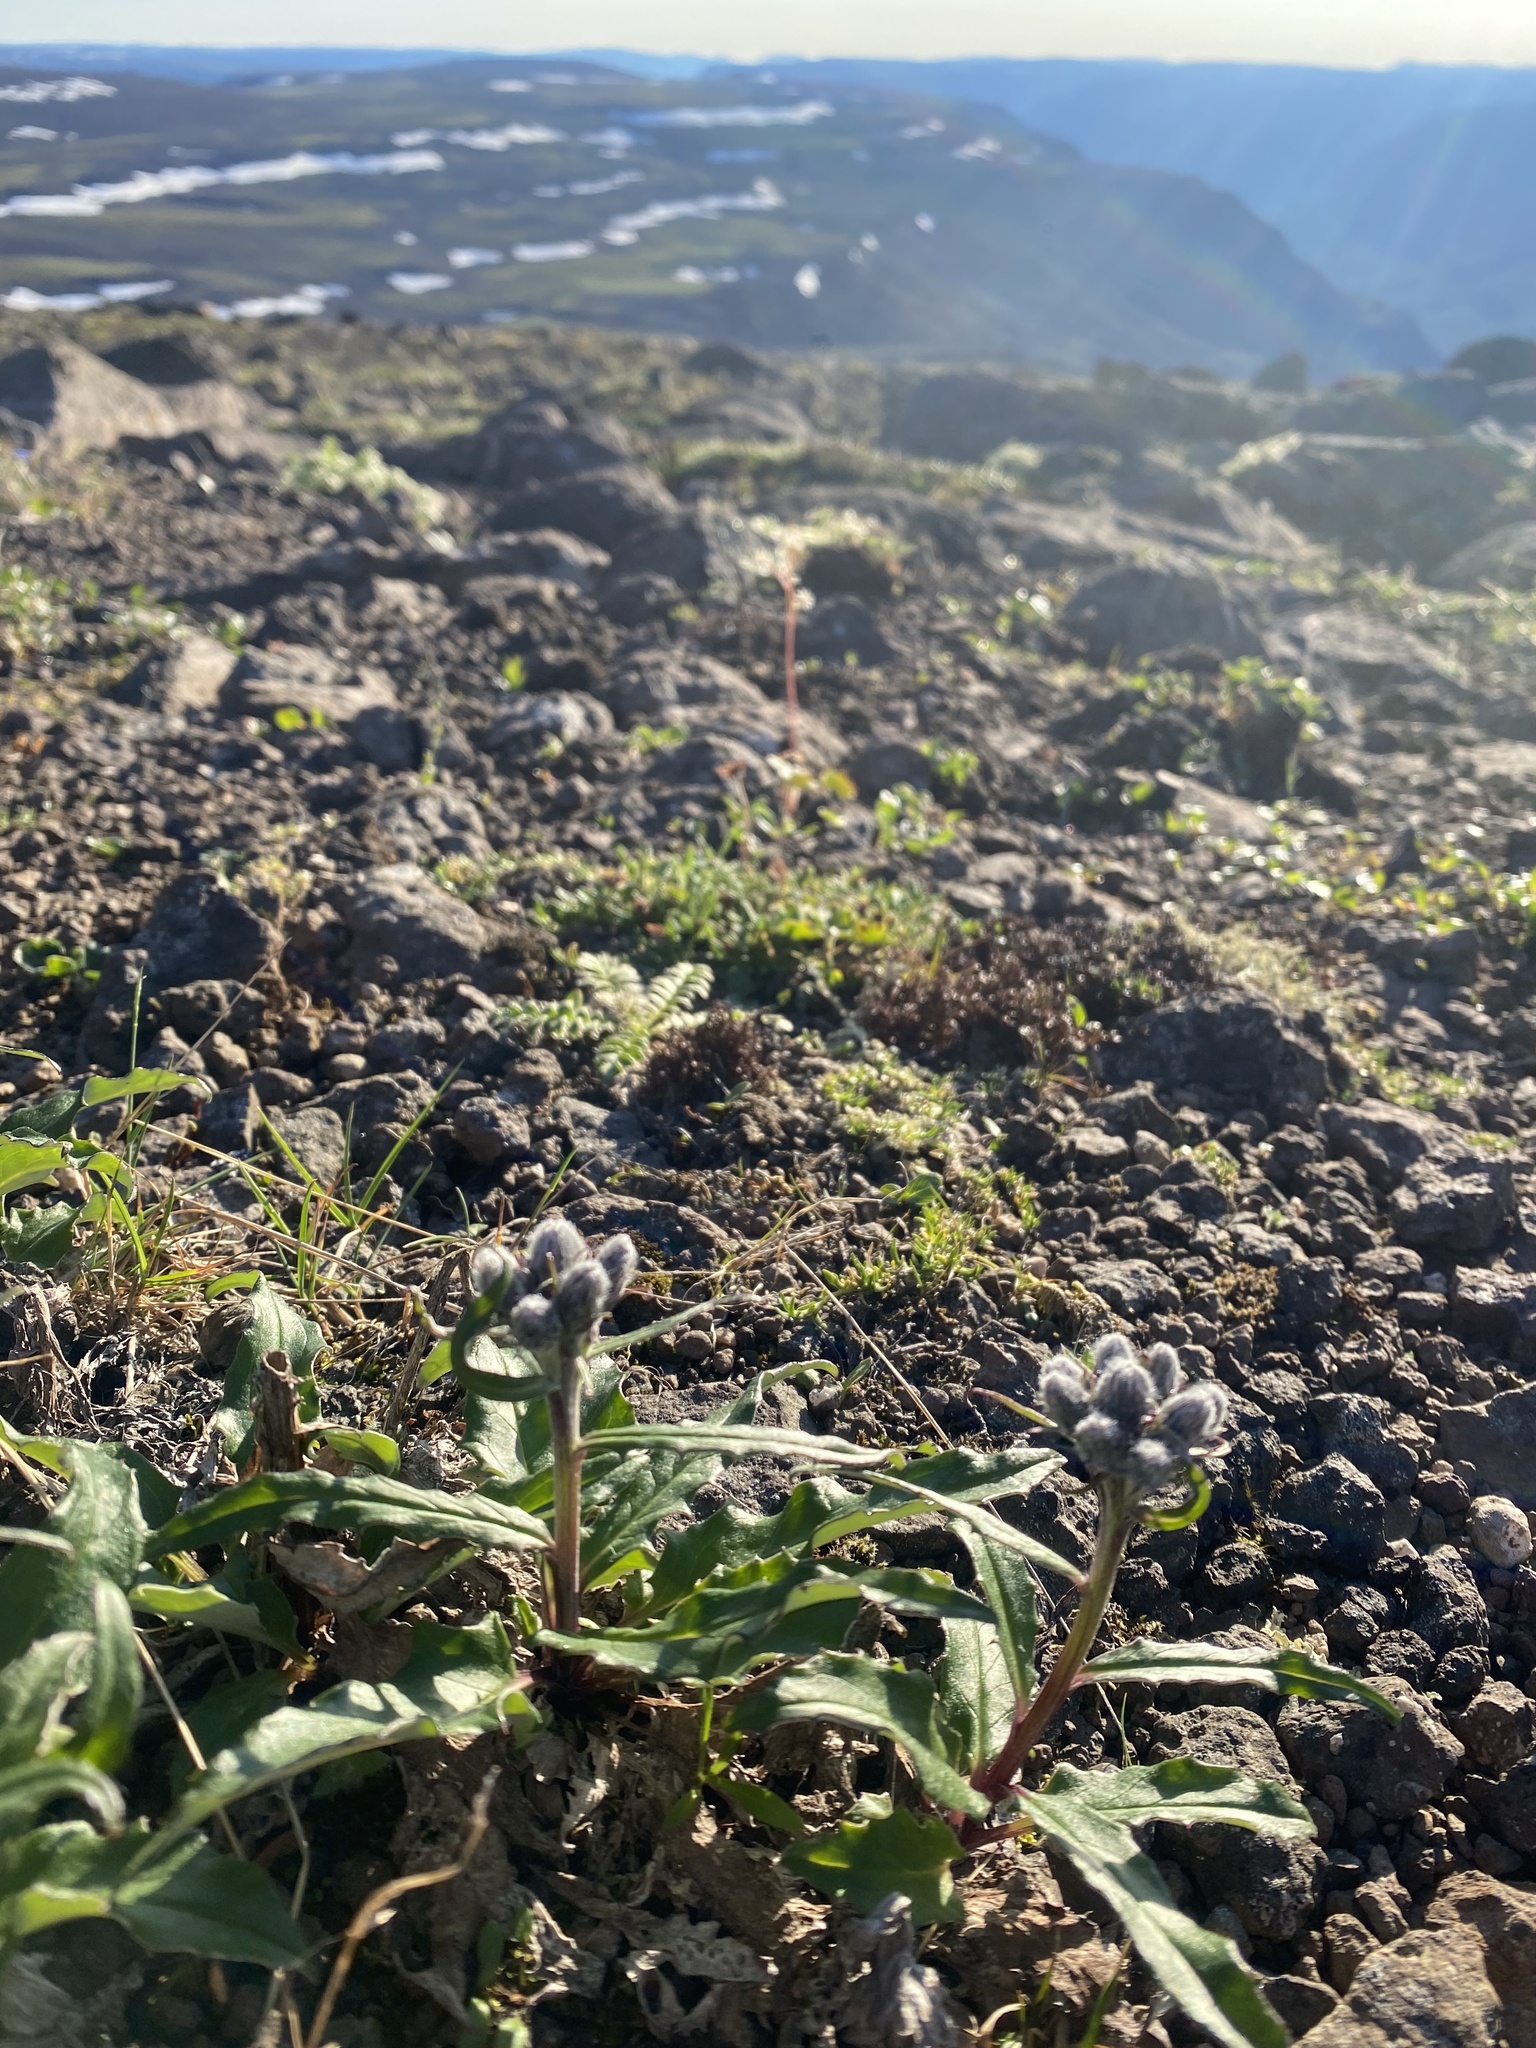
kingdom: Plantae
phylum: Tracheophyta
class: Magnoliopsida
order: Asterales
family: Asteraceae
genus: Saussurea
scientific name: Saussurea denticulata
